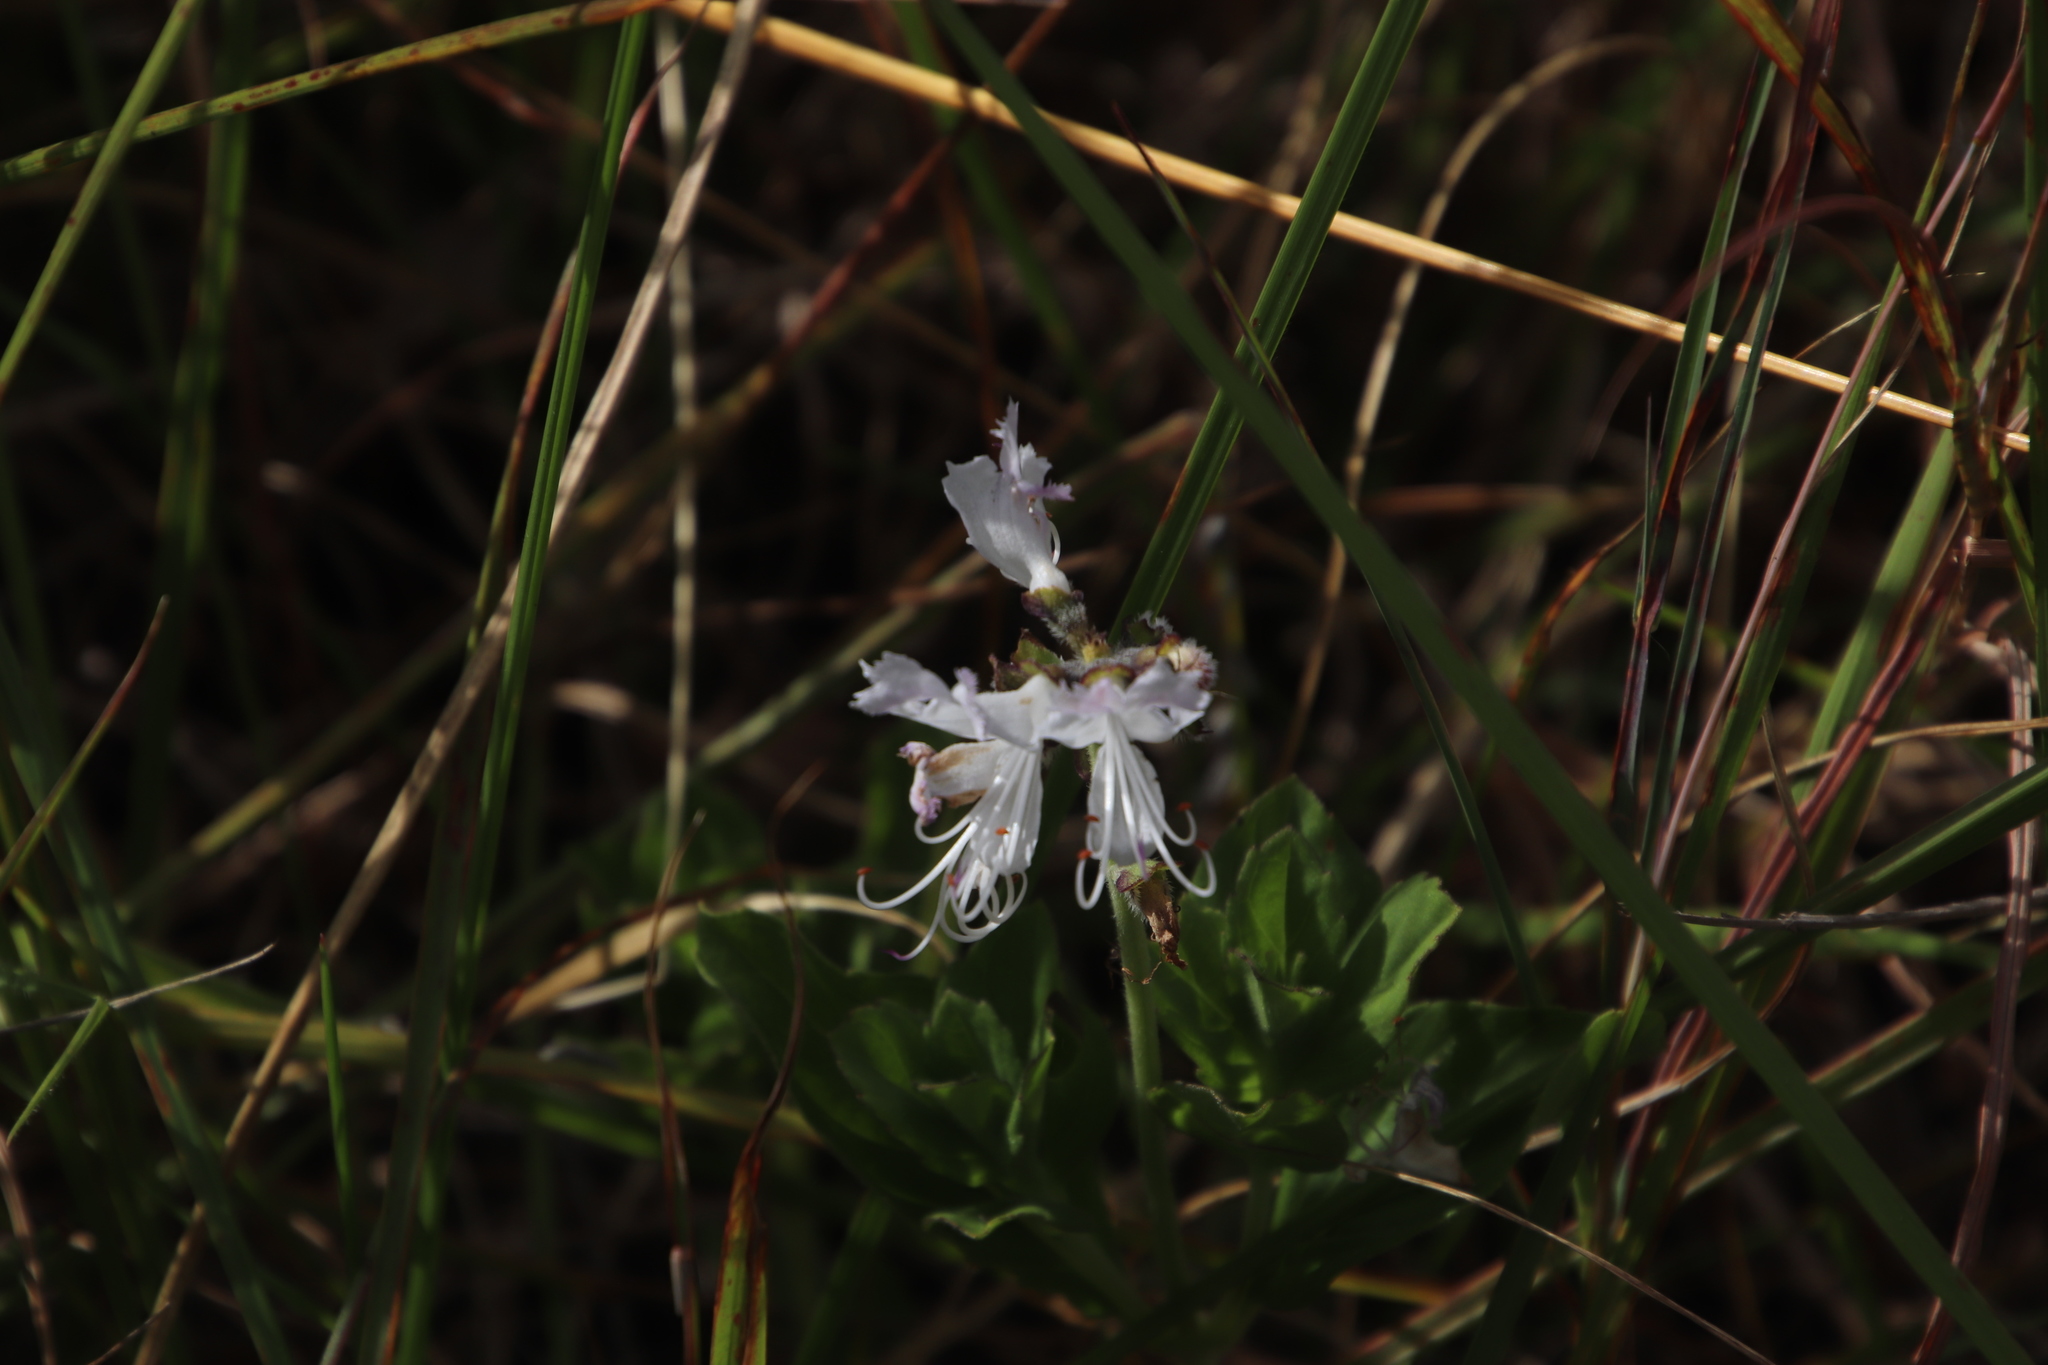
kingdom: Plantae
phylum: Tracheophyta
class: Magnoliopsida
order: Lamiales
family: Lamiaceae
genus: Ocimum
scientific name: Ocimum obovatum
